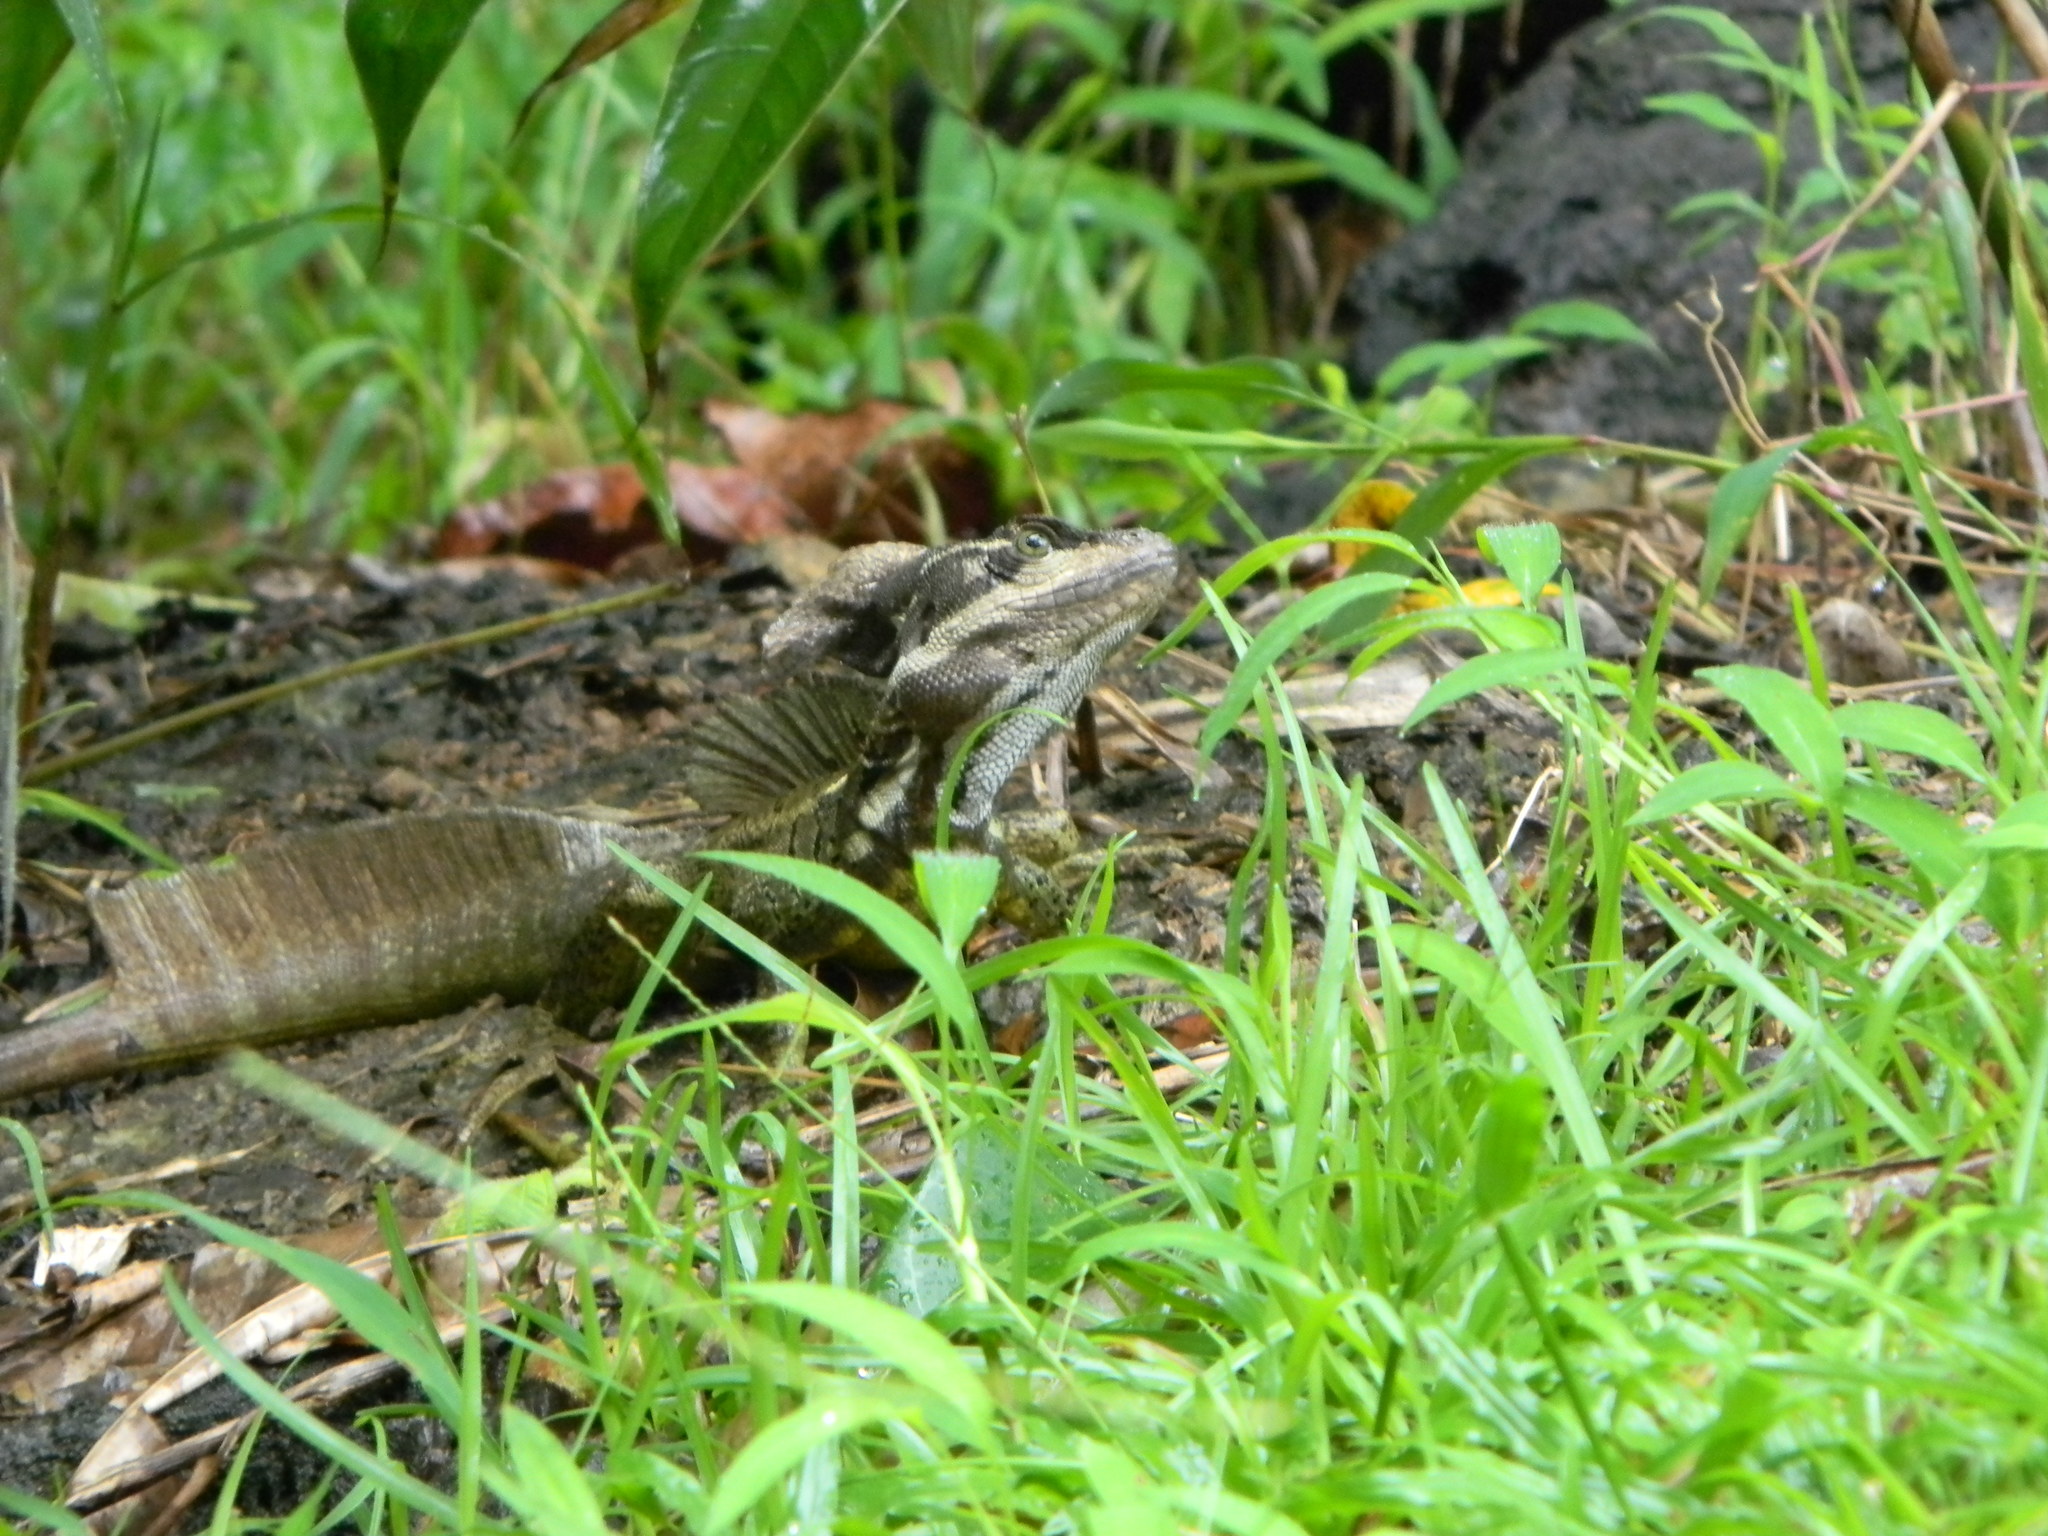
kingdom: Animalia
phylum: Chordata
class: Squamata
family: Corytophanidae
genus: Basiliscus
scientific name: Basiliscus basiliscus
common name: Common basilisk
